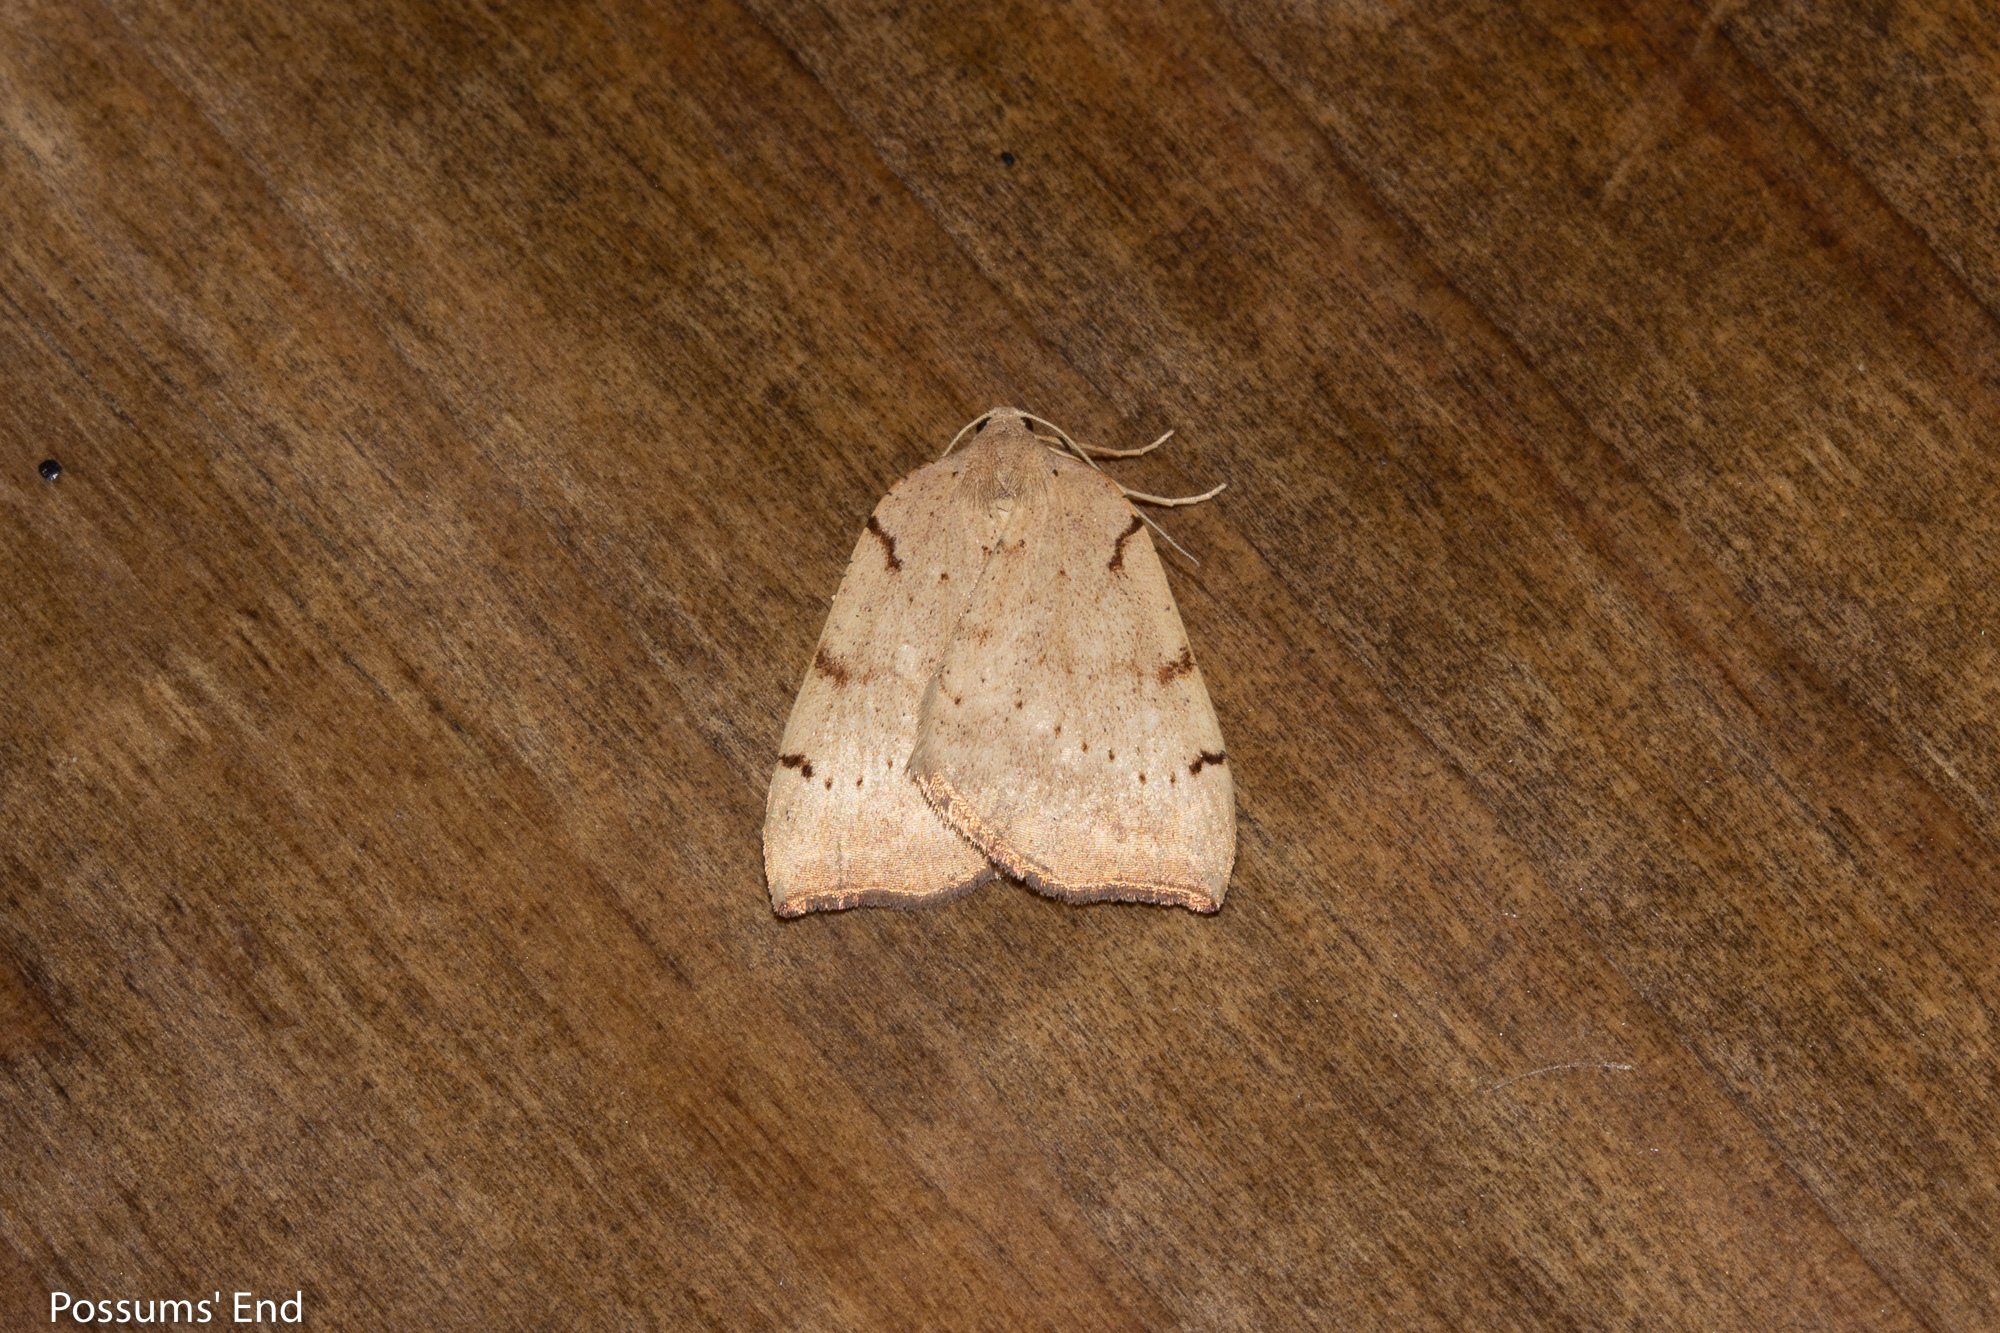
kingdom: Animalia
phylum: Arthropoda
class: Insecta
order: Lepidoptera
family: Geometridae
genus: Sestra
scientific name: Sestra humeraria
